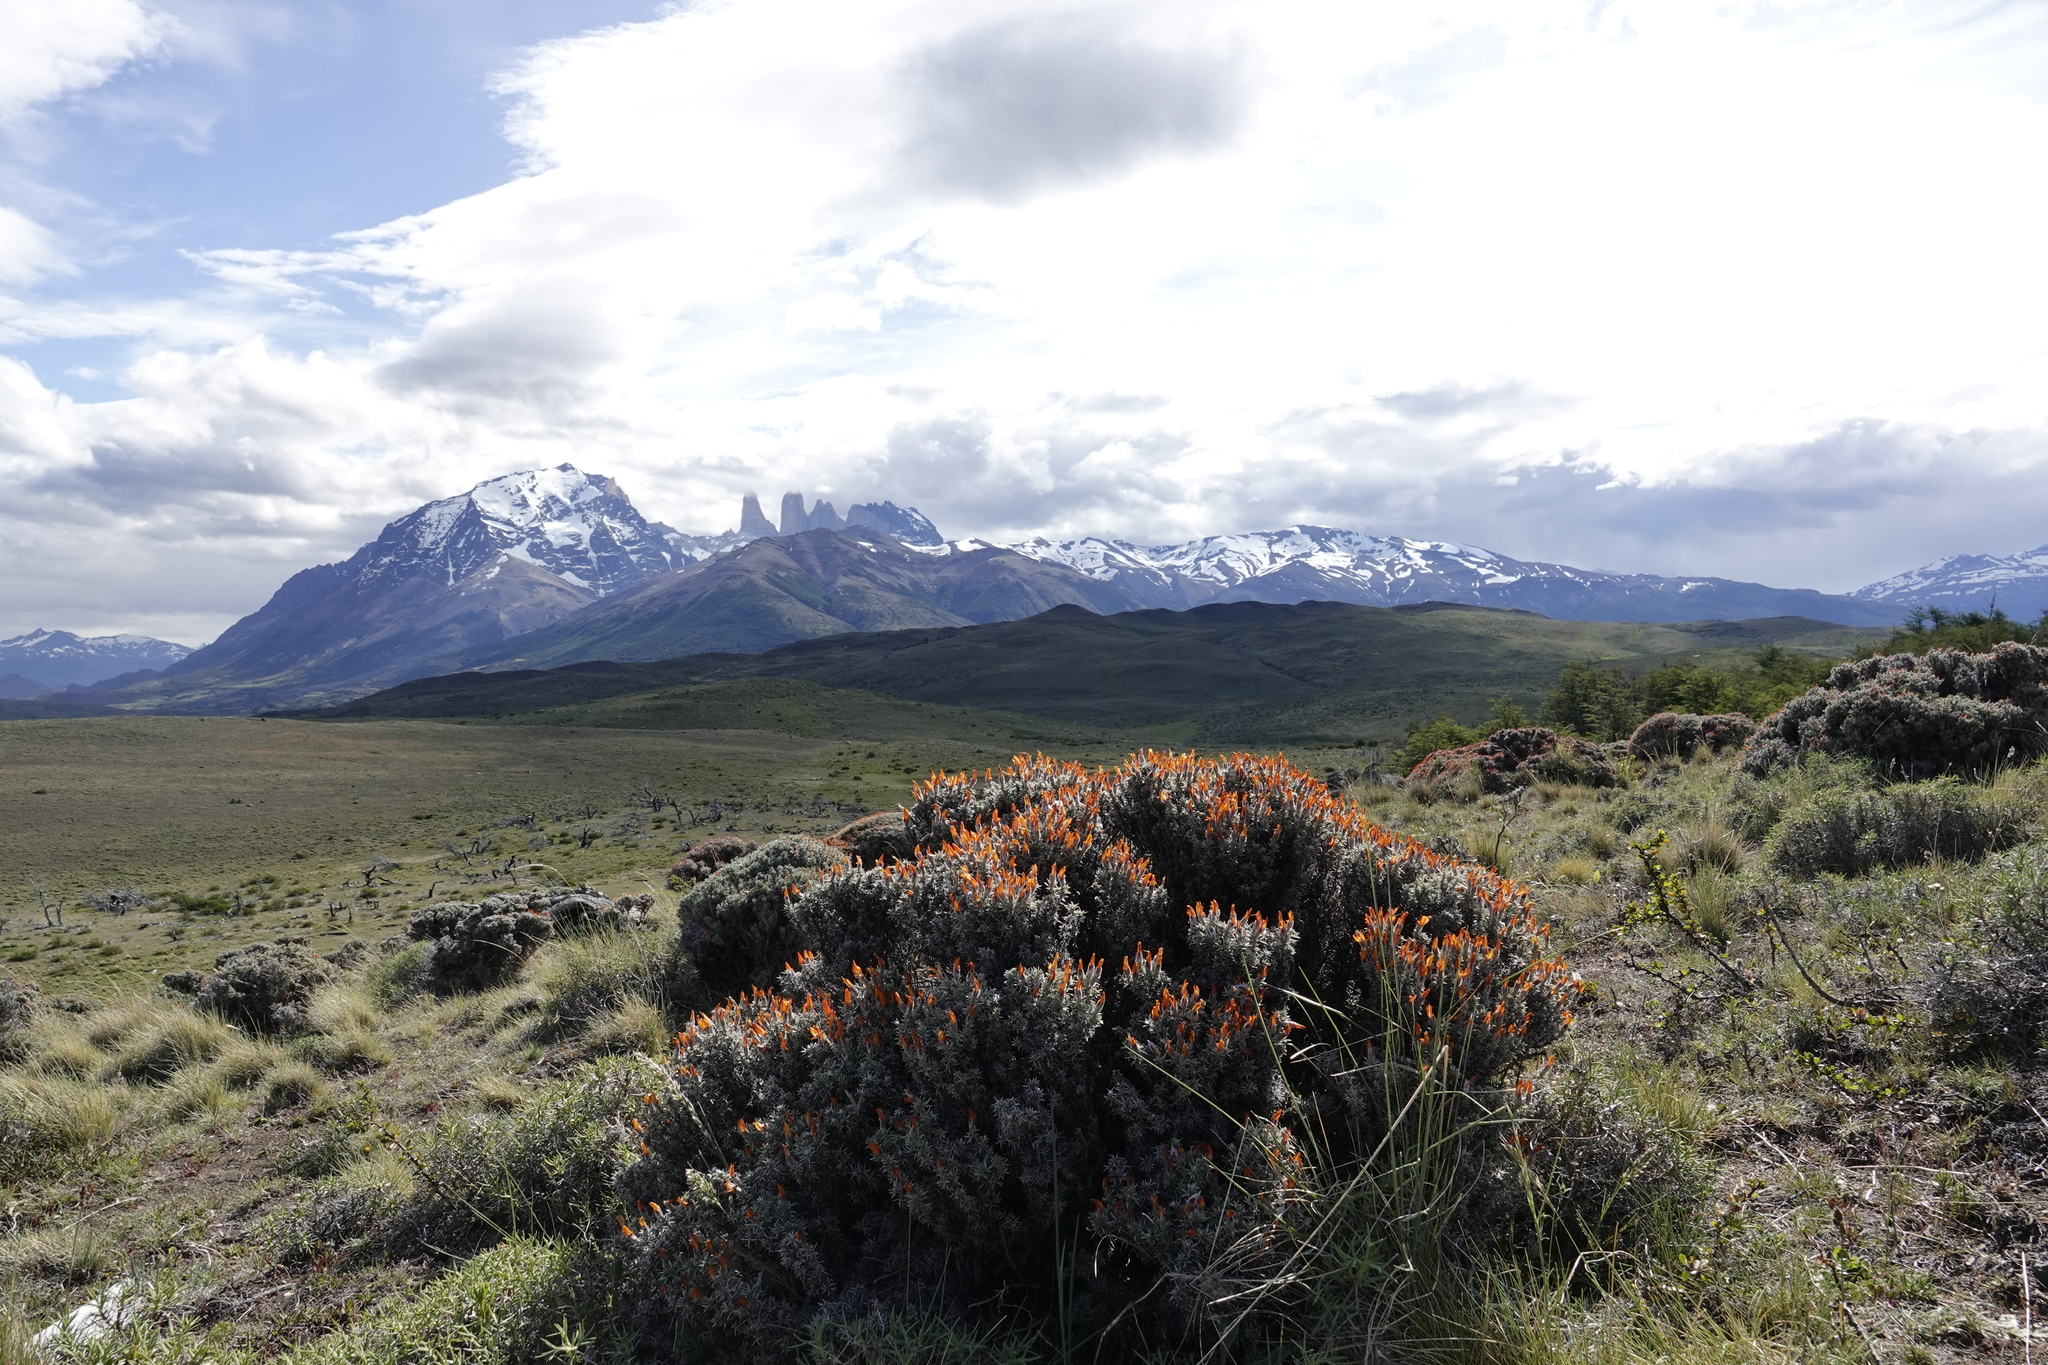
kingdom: Plantae
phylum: Tracheophyta
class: Magnoliopsida
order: Fabales
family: Fabaceae
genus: Anarthrophyllum
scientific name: Anarthrophyllum desideratum
